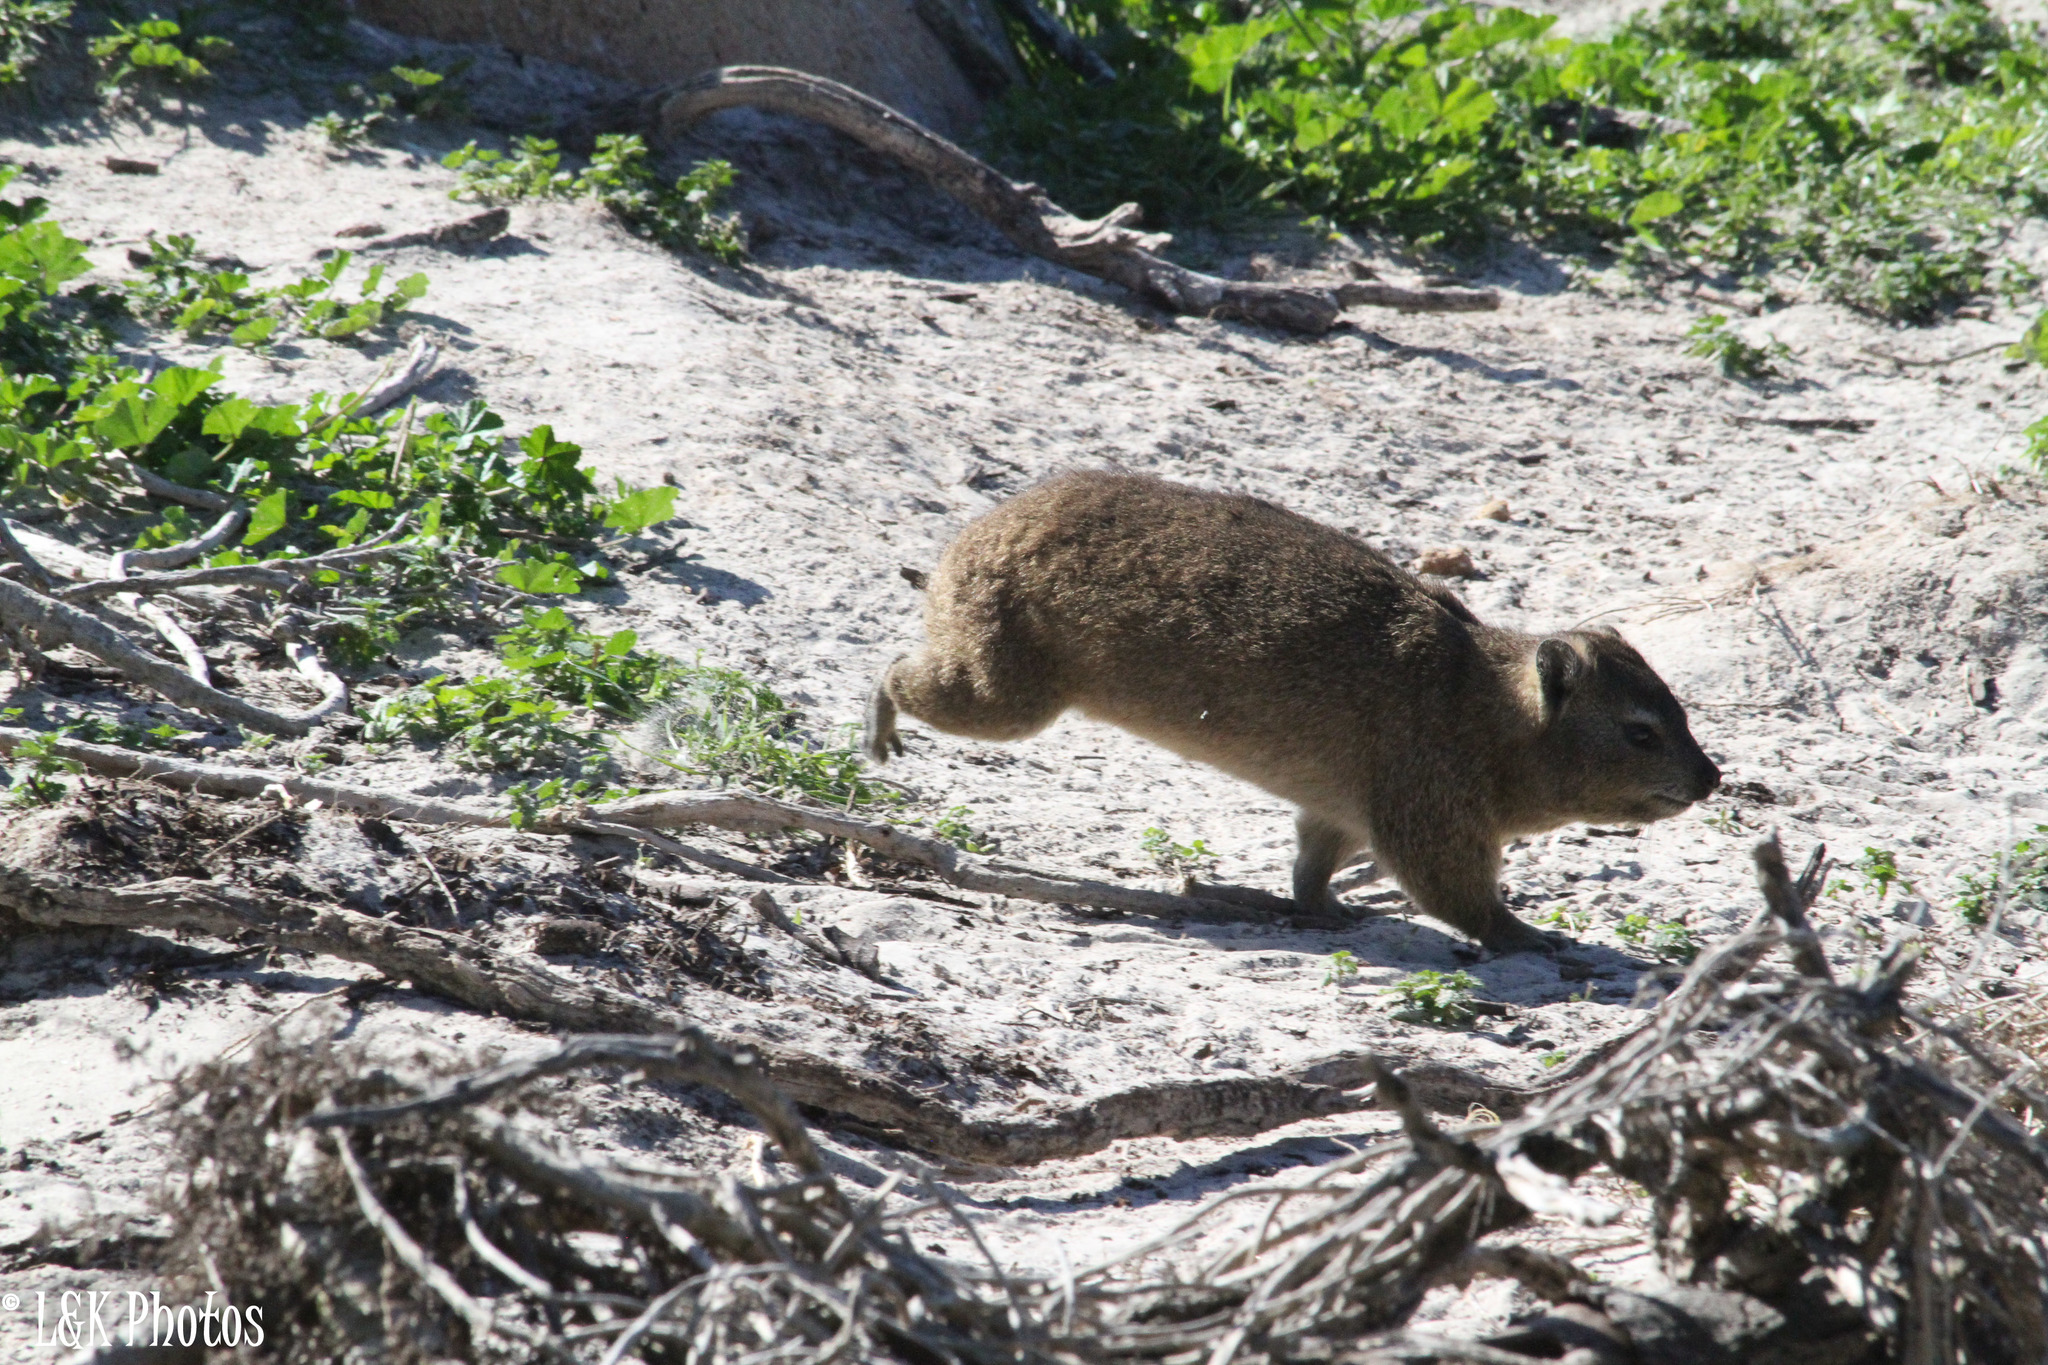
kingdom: Animalia
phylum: Chordata
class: Mammalia
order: Hyracoidea
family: Procaviidae
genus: Procavia
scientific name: Procavia capensis
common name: Rock hyrax
